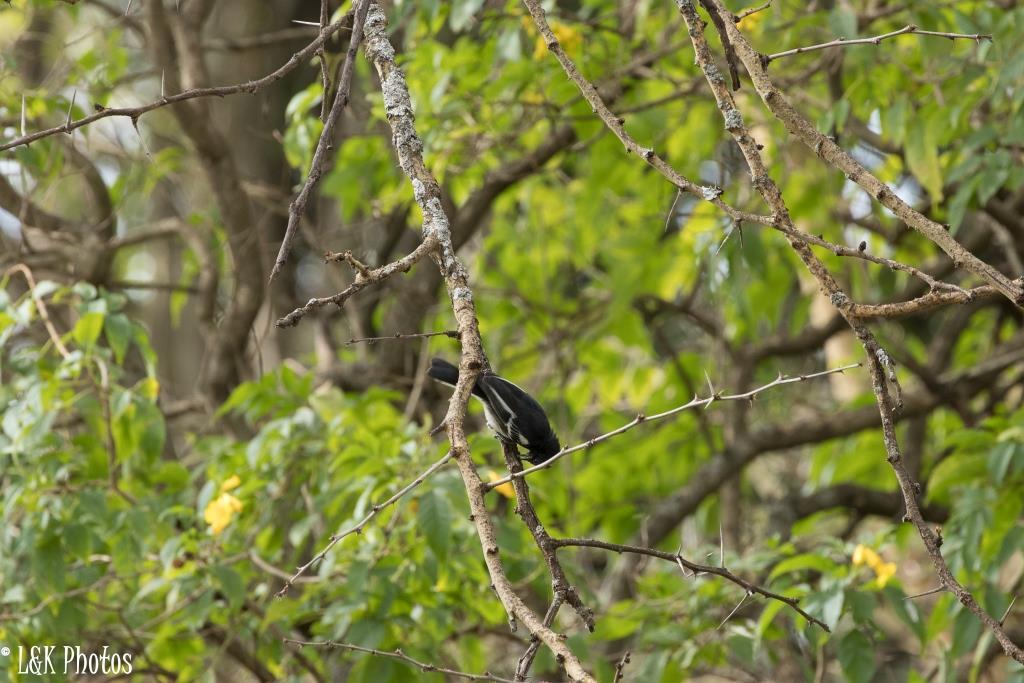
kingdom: Animalia
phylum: Chordata
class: Aves
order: Passeriformes
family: Malaconotidae
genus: Laniarius
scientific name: Laniarius major
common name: Tropical boubou
